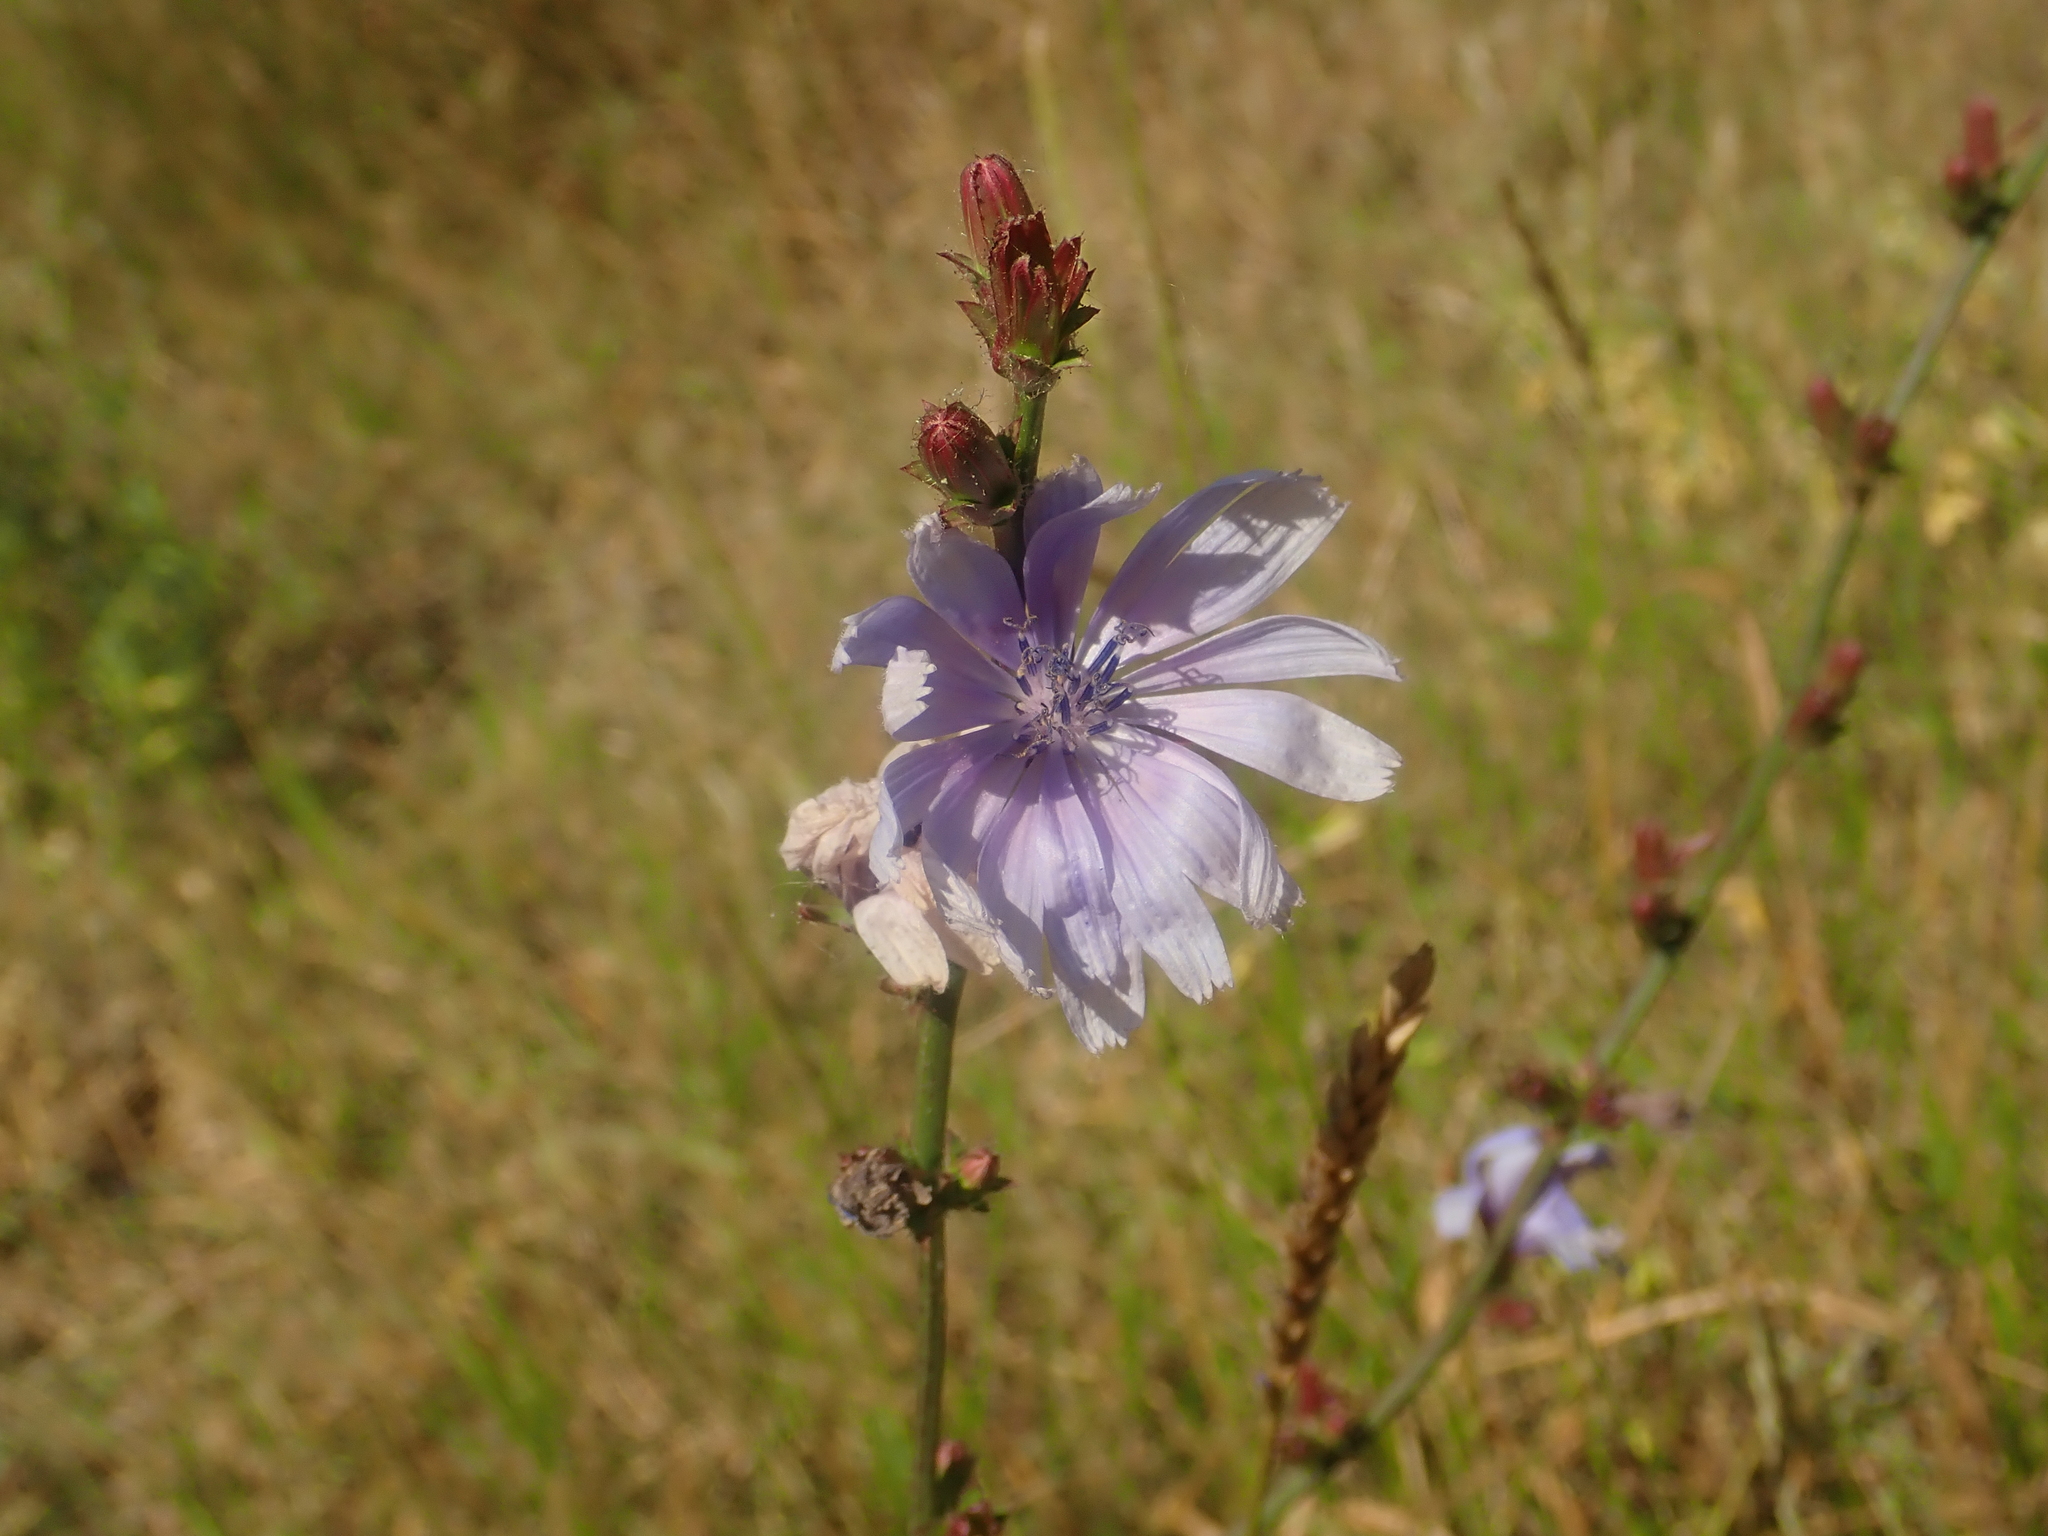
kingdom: Plantae
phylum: Tracheophyta
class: Magnoliopsida
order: Asterales
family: Asteraceae
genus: Cichorium
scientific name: Cichorium intybus
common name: Chicory
